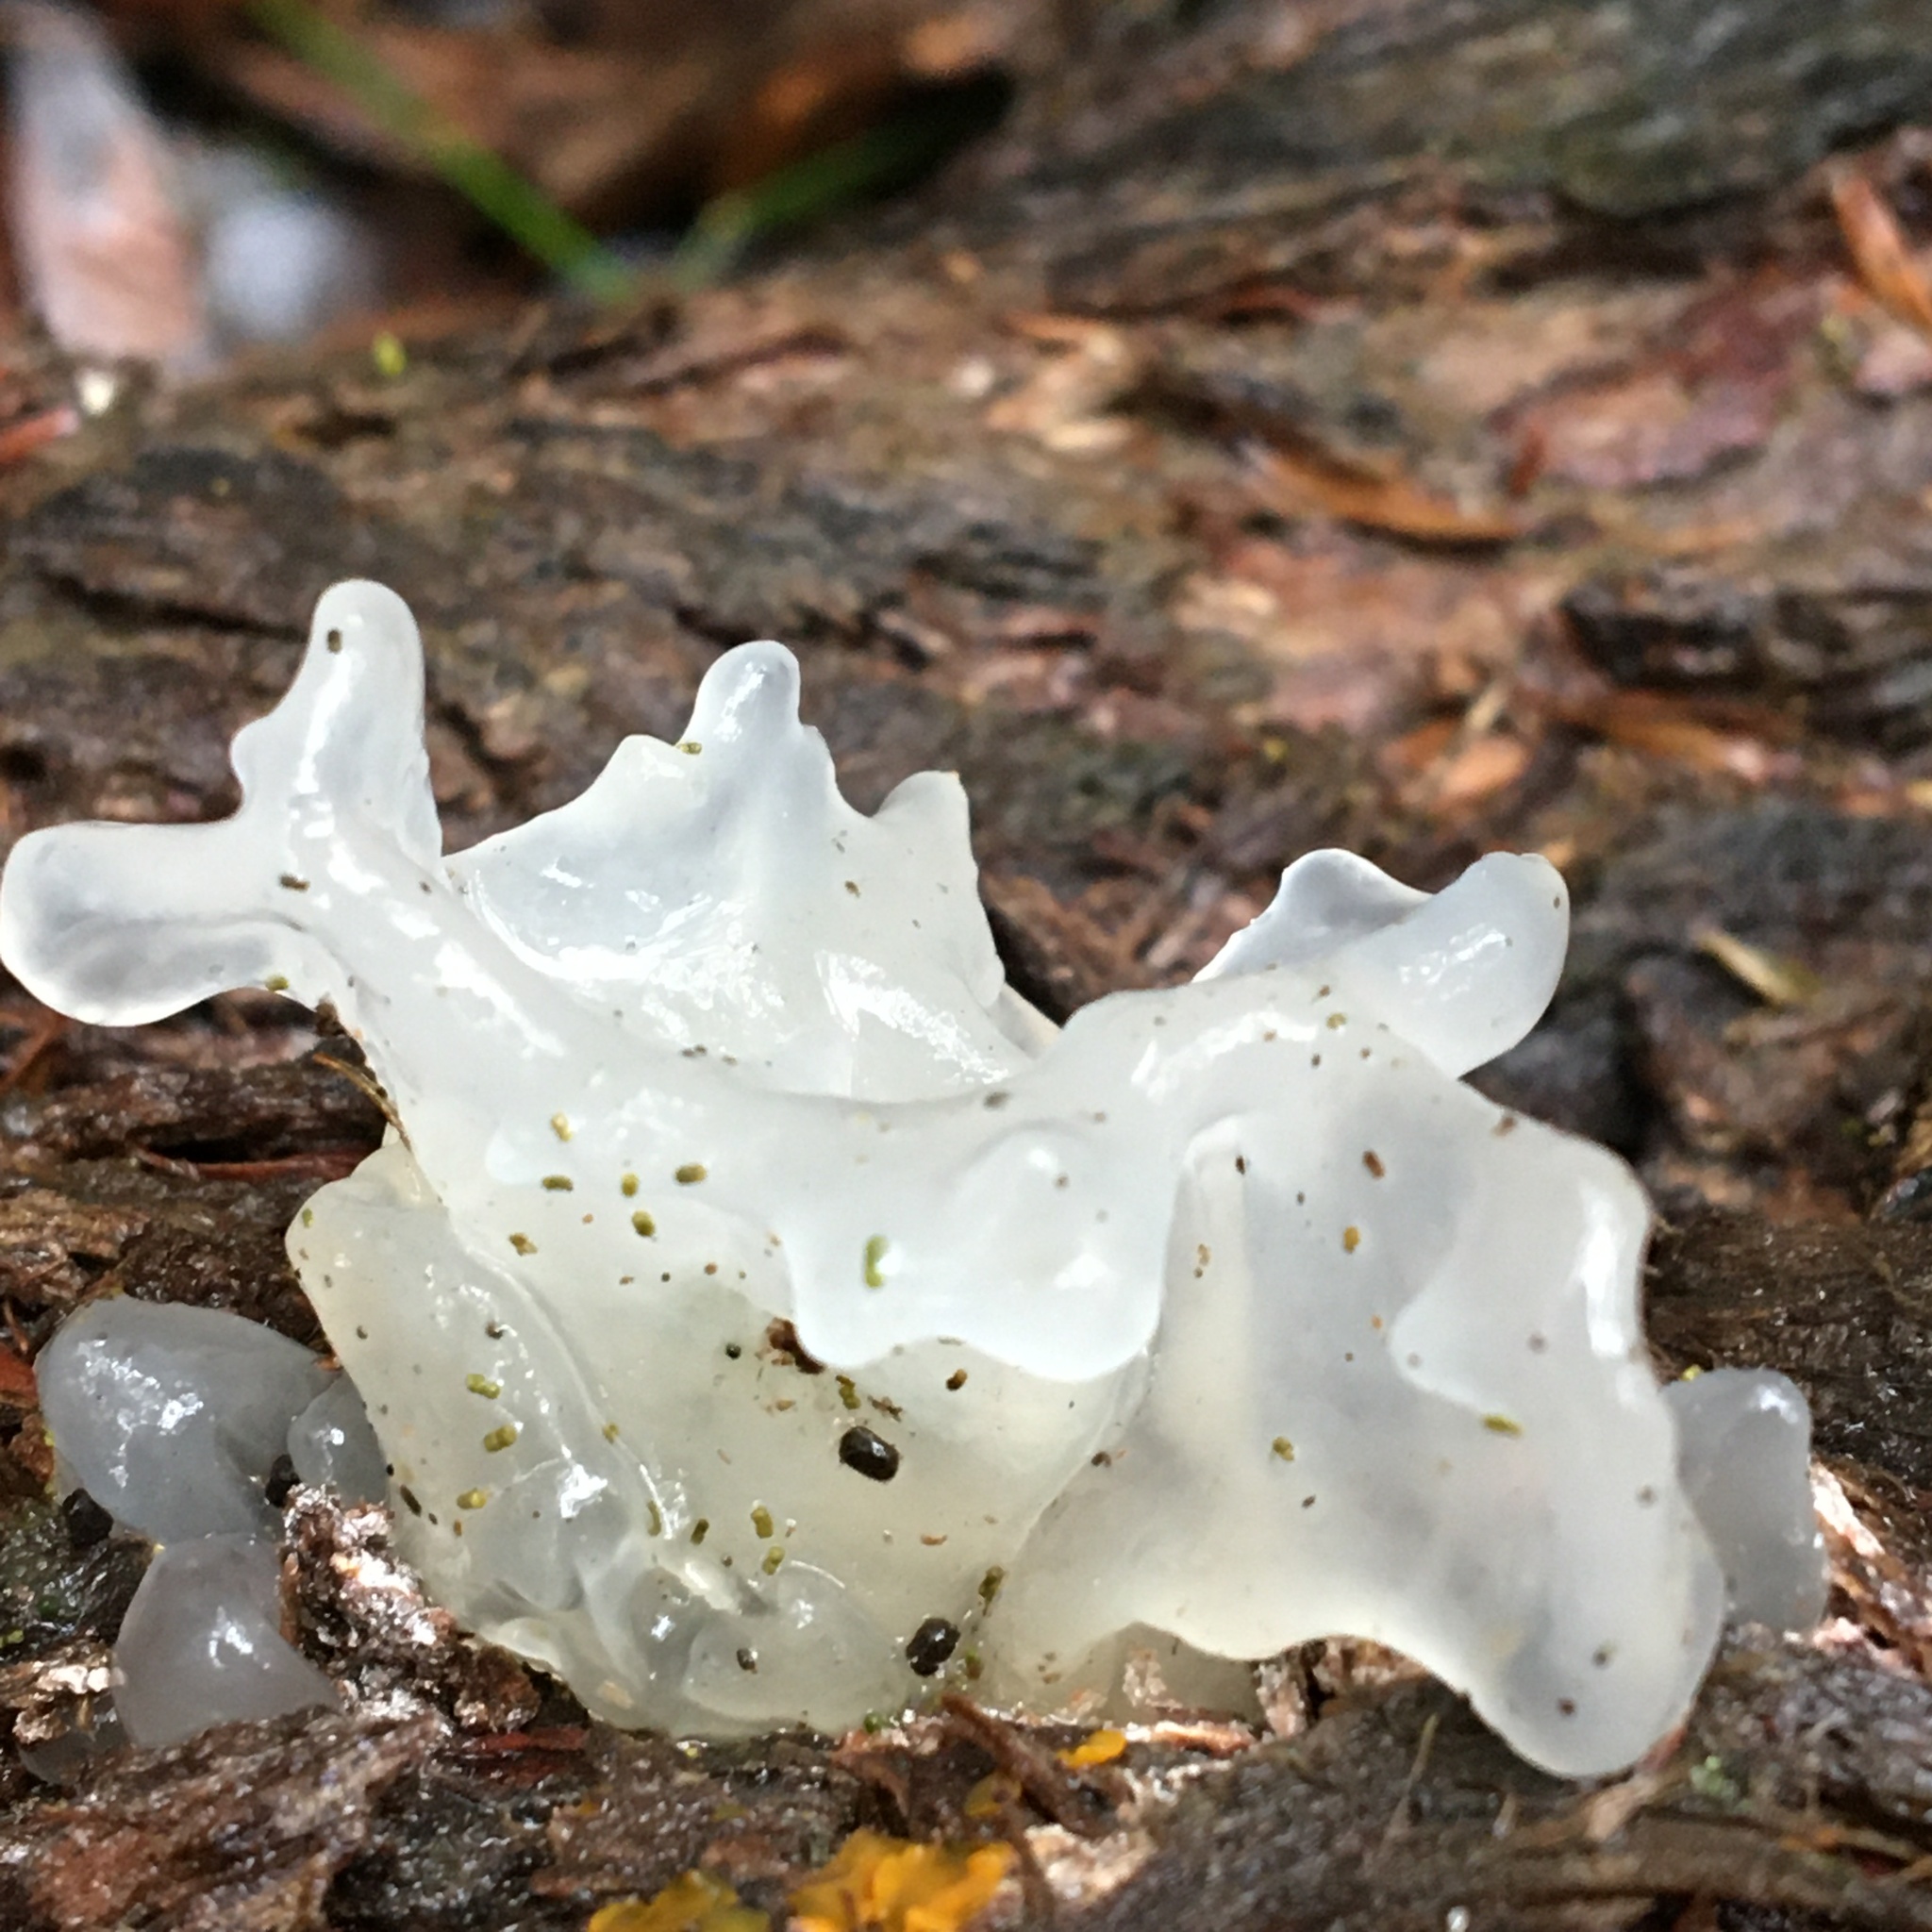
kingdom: Fungi
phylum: Basidiomycota
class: Tremellomycetes
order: Tremellales
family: Tremellaceae
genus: Tremella
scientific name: Tremella fuciformis
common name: Snow fungus
